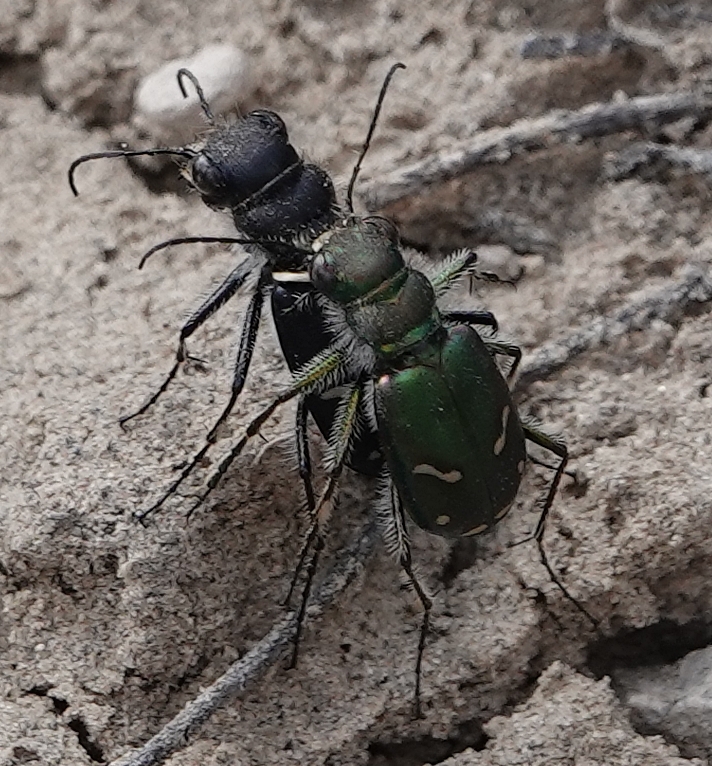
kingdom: Animalia
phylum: Arthropoda
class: Insecta
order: Coleoptera
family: Carabidae
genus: Cicindela
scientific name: Cicindela purpurea
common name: Cow path tiger beetle
